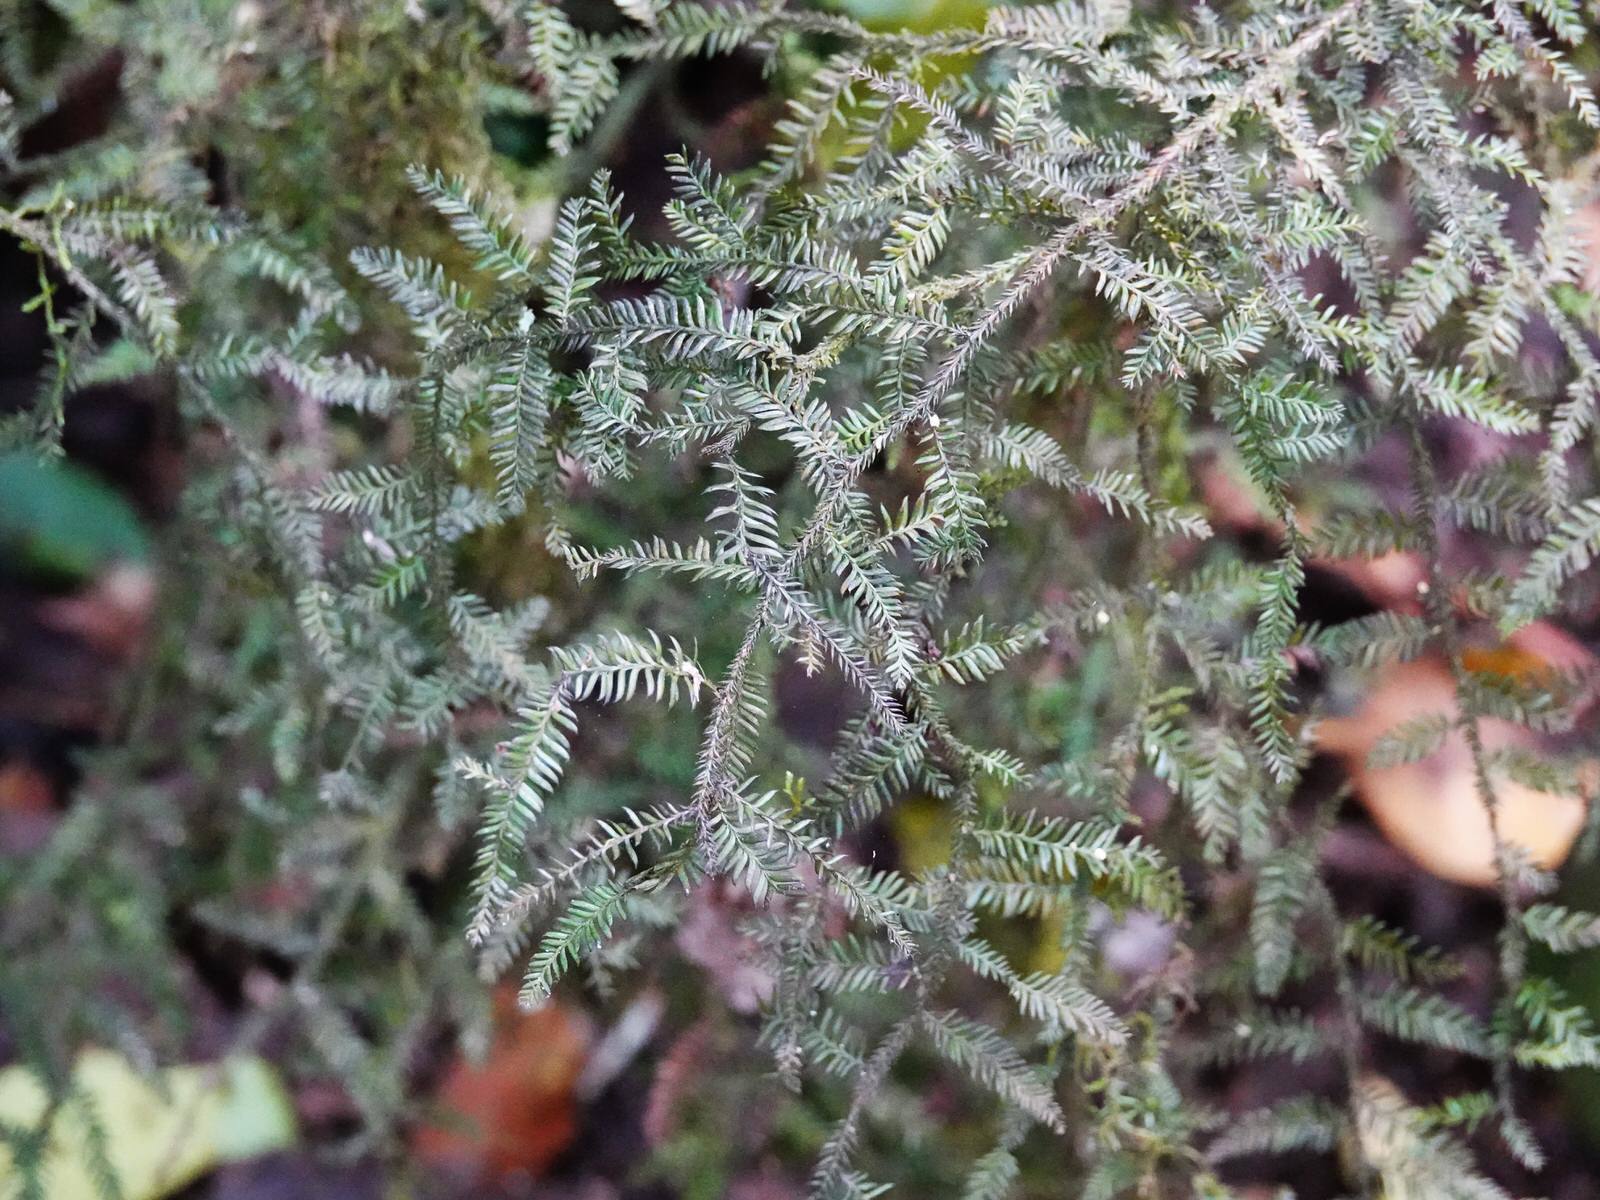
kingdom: Plantae
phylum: Tracheophyta
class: Pinopsida
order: Pinales
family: Podocarpaceae
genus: Dacrycarpus
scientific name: Dacrycarpus dacrydioides
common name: White pine
